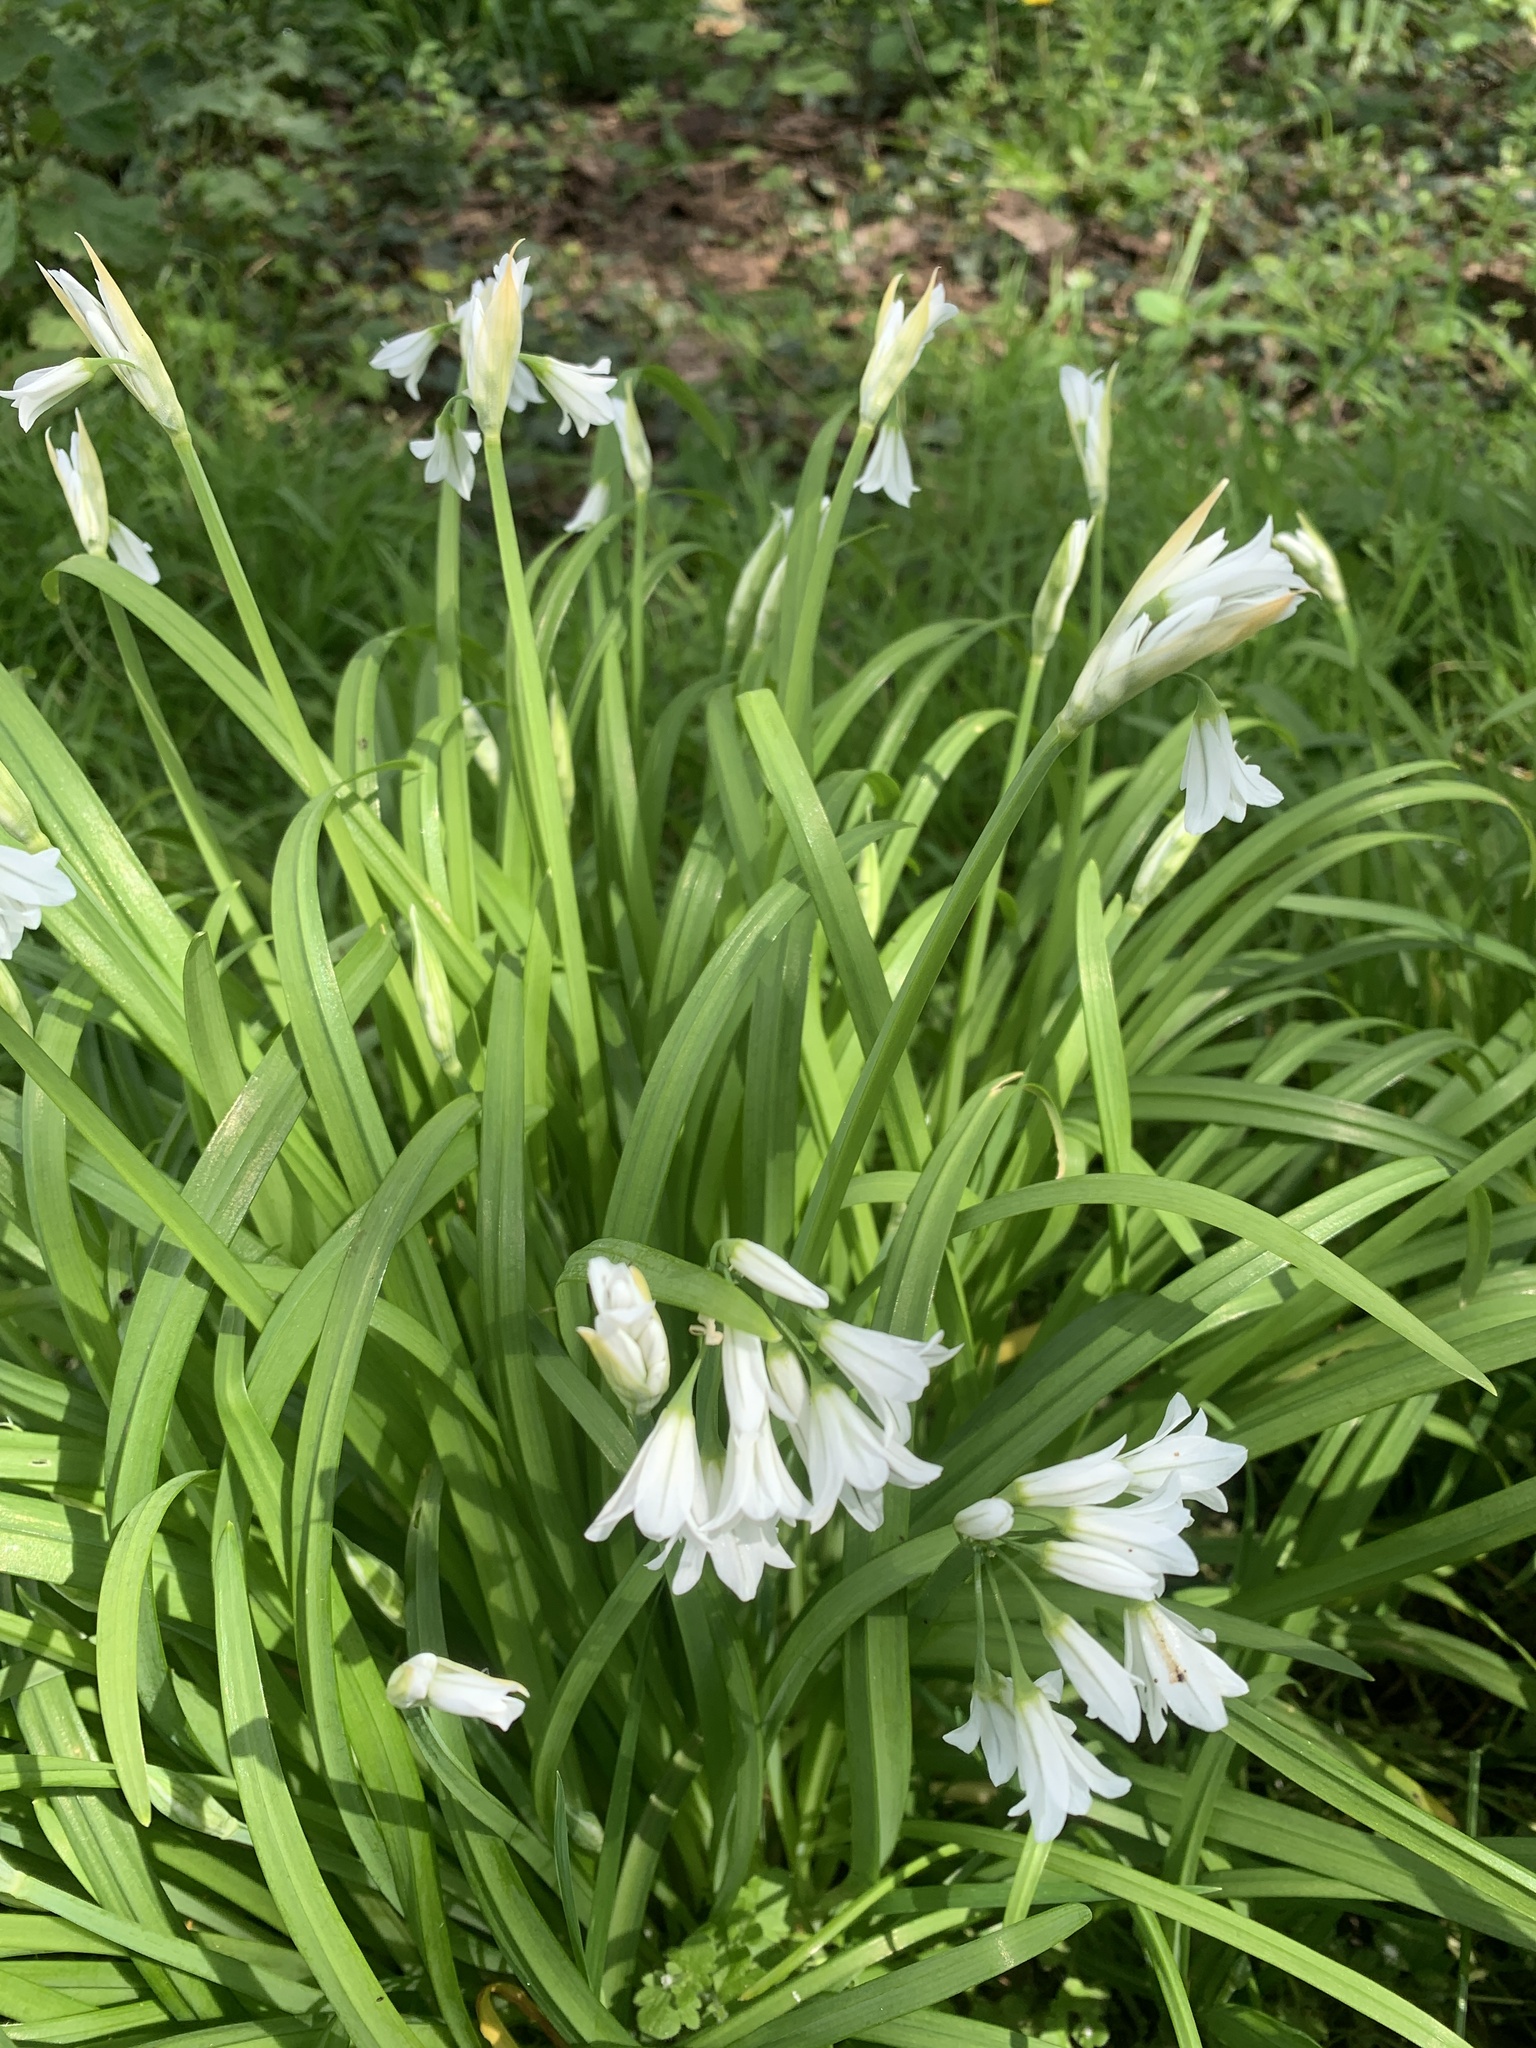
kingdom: Plantae
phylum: Tracheophyta
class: Liliopsida
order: Asparagales
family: Amaryllidaceae
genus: Allium
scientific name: Allium triquetrum
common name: Three-cornered garlic
